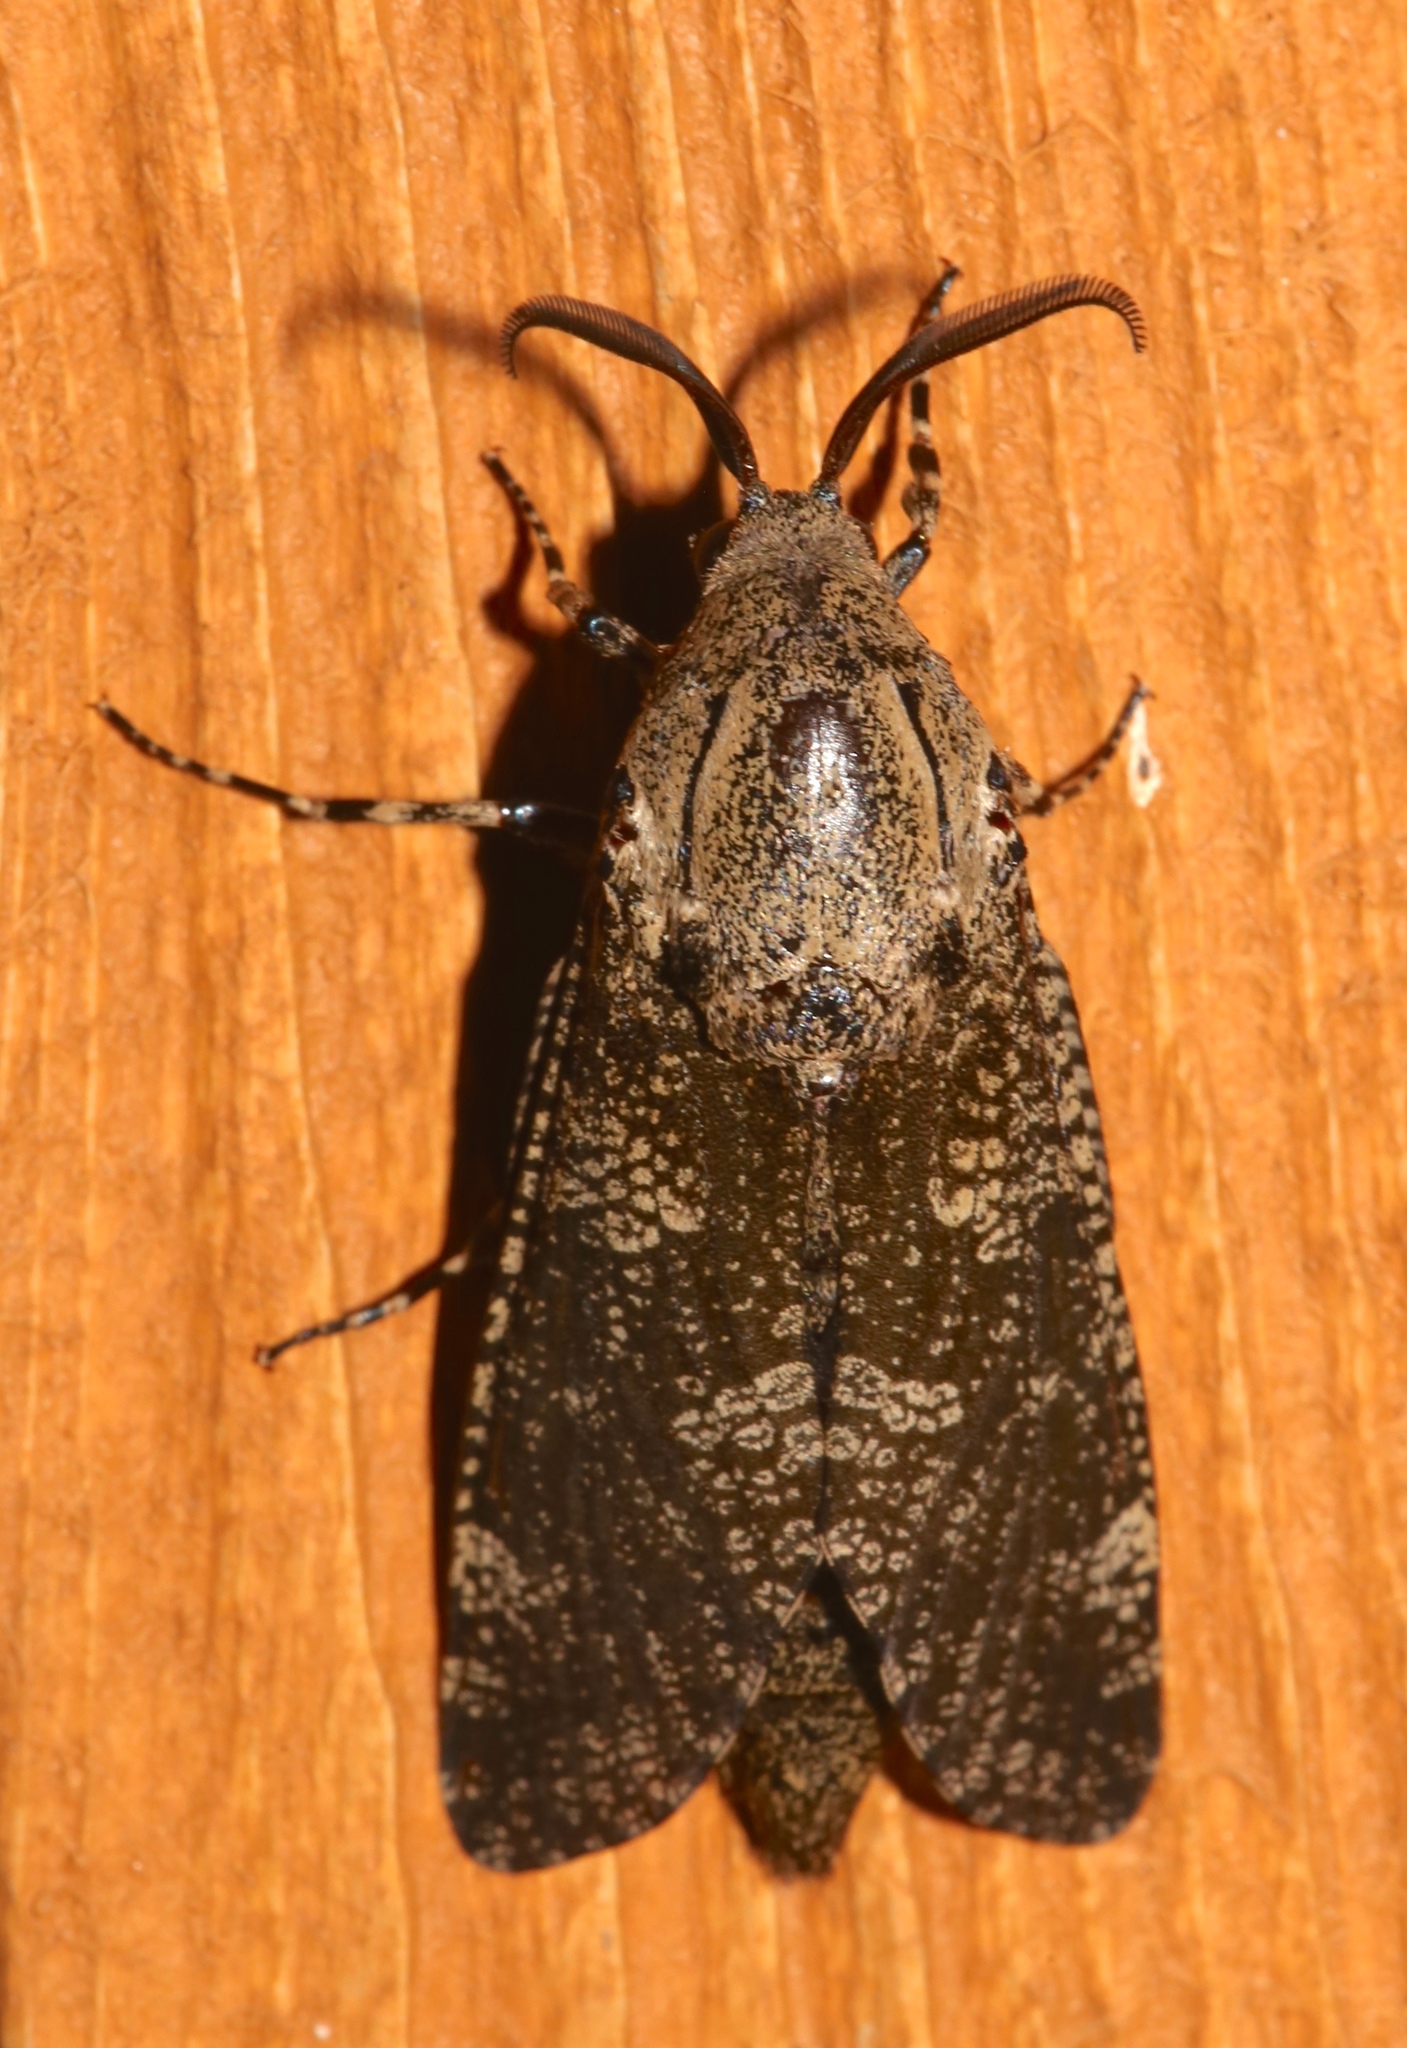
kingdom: Animalia
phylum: Arthropoda
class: Insecta
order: Lepidoptera
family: Cossidae
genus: Prionoxystus
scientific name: Prionoxystus robiniae
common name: Carpenterworm
